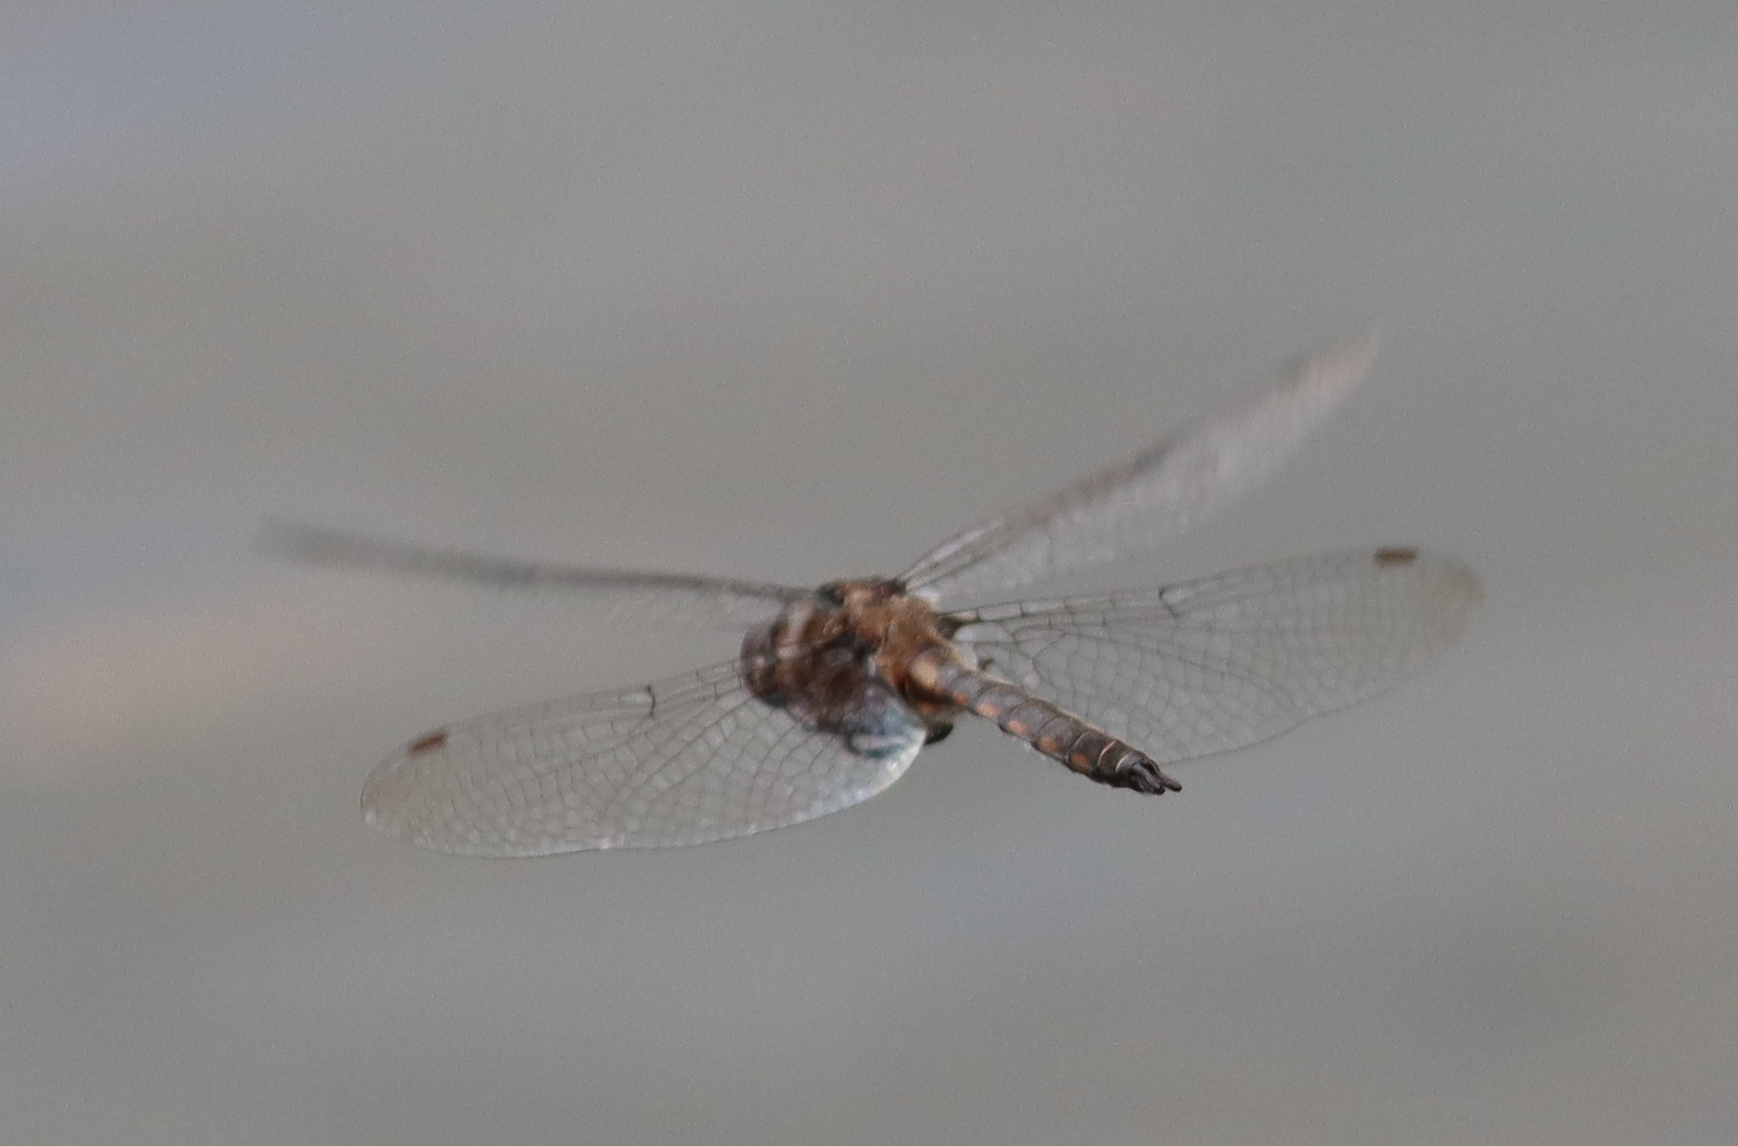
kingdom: Animalia
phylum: Arthropoda
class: Insecta
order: Odonata
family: Corduliidae
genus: Epitheca
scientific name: Epitheca cynosura
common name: Common baskettail
